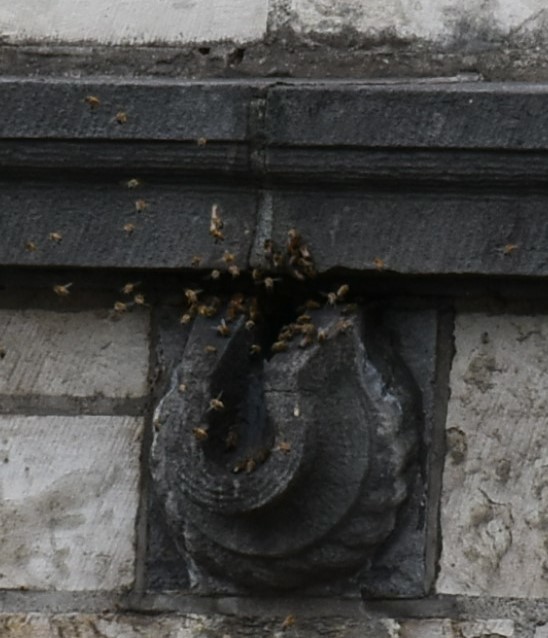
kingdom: Animalia
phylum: Arthropoda
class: Insecta
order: Hymenoptera
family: Apidae
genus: Apis
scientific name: Apis mellifera
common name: Honey bee
